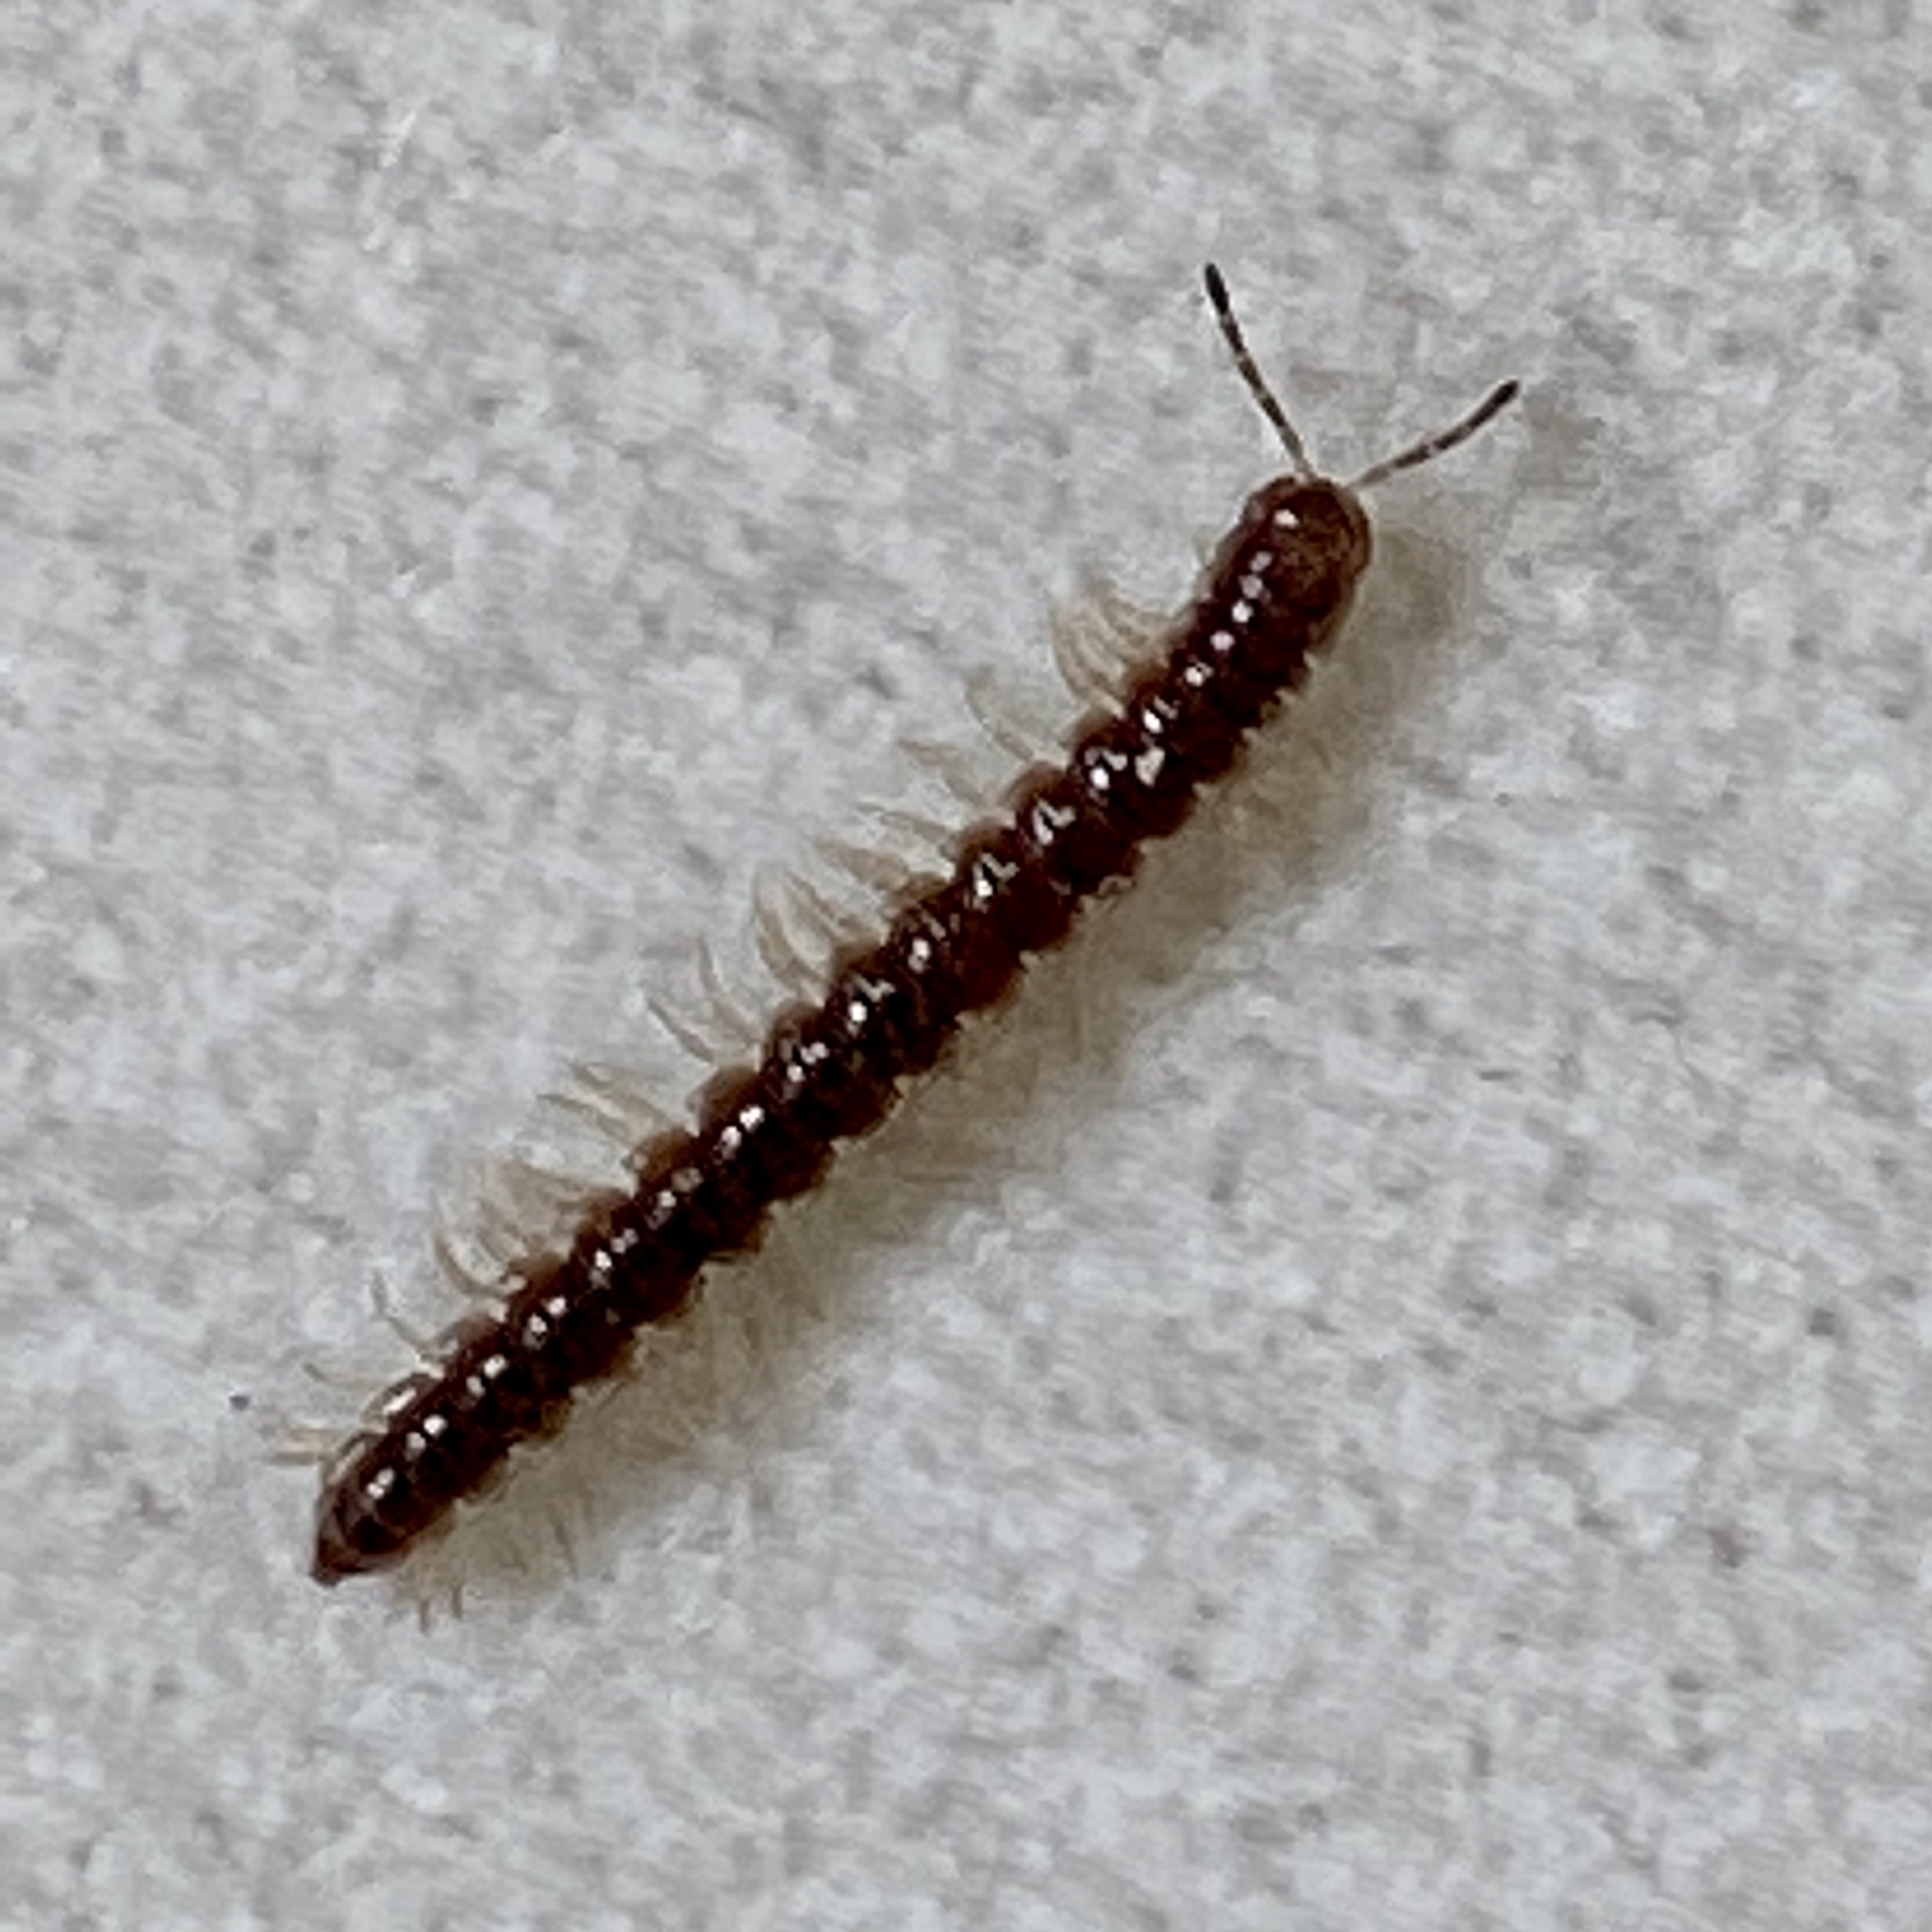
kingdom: Animalia
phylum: Arthropoda
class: Diplopoda
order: Polydesmida
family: Paradoxosomatidae
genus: Oxidus
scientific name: Oxidus gracilis
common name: Greenhouse millipede
